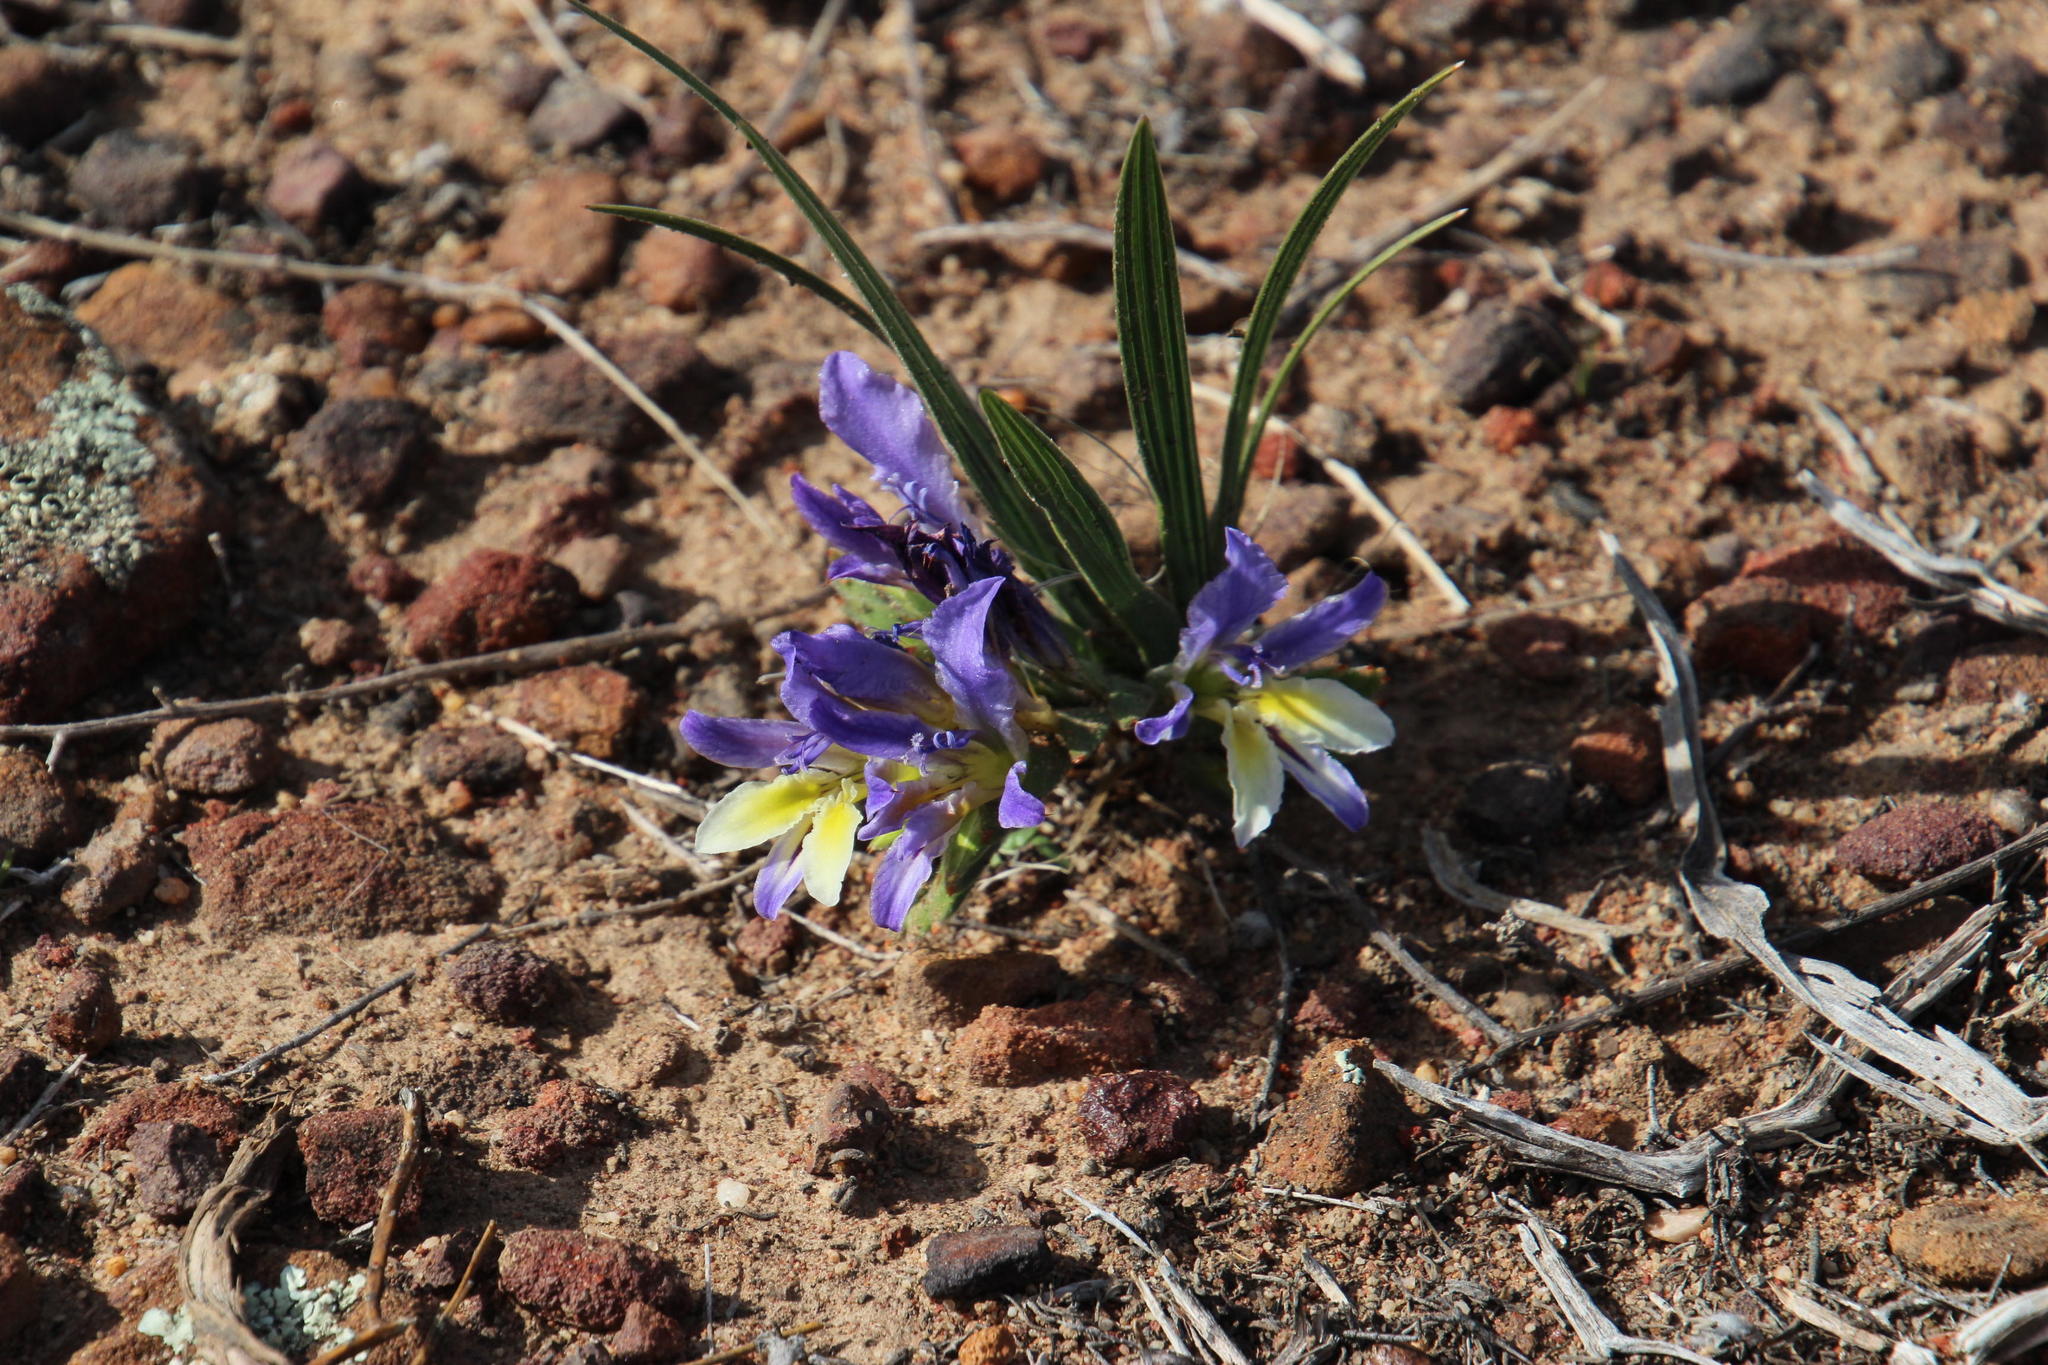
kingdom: Plantae
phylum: Tracheophyta
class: Liliopsida
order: Asparagales
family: Iridaceae
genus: Babiana
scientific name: Babiana mucronata
